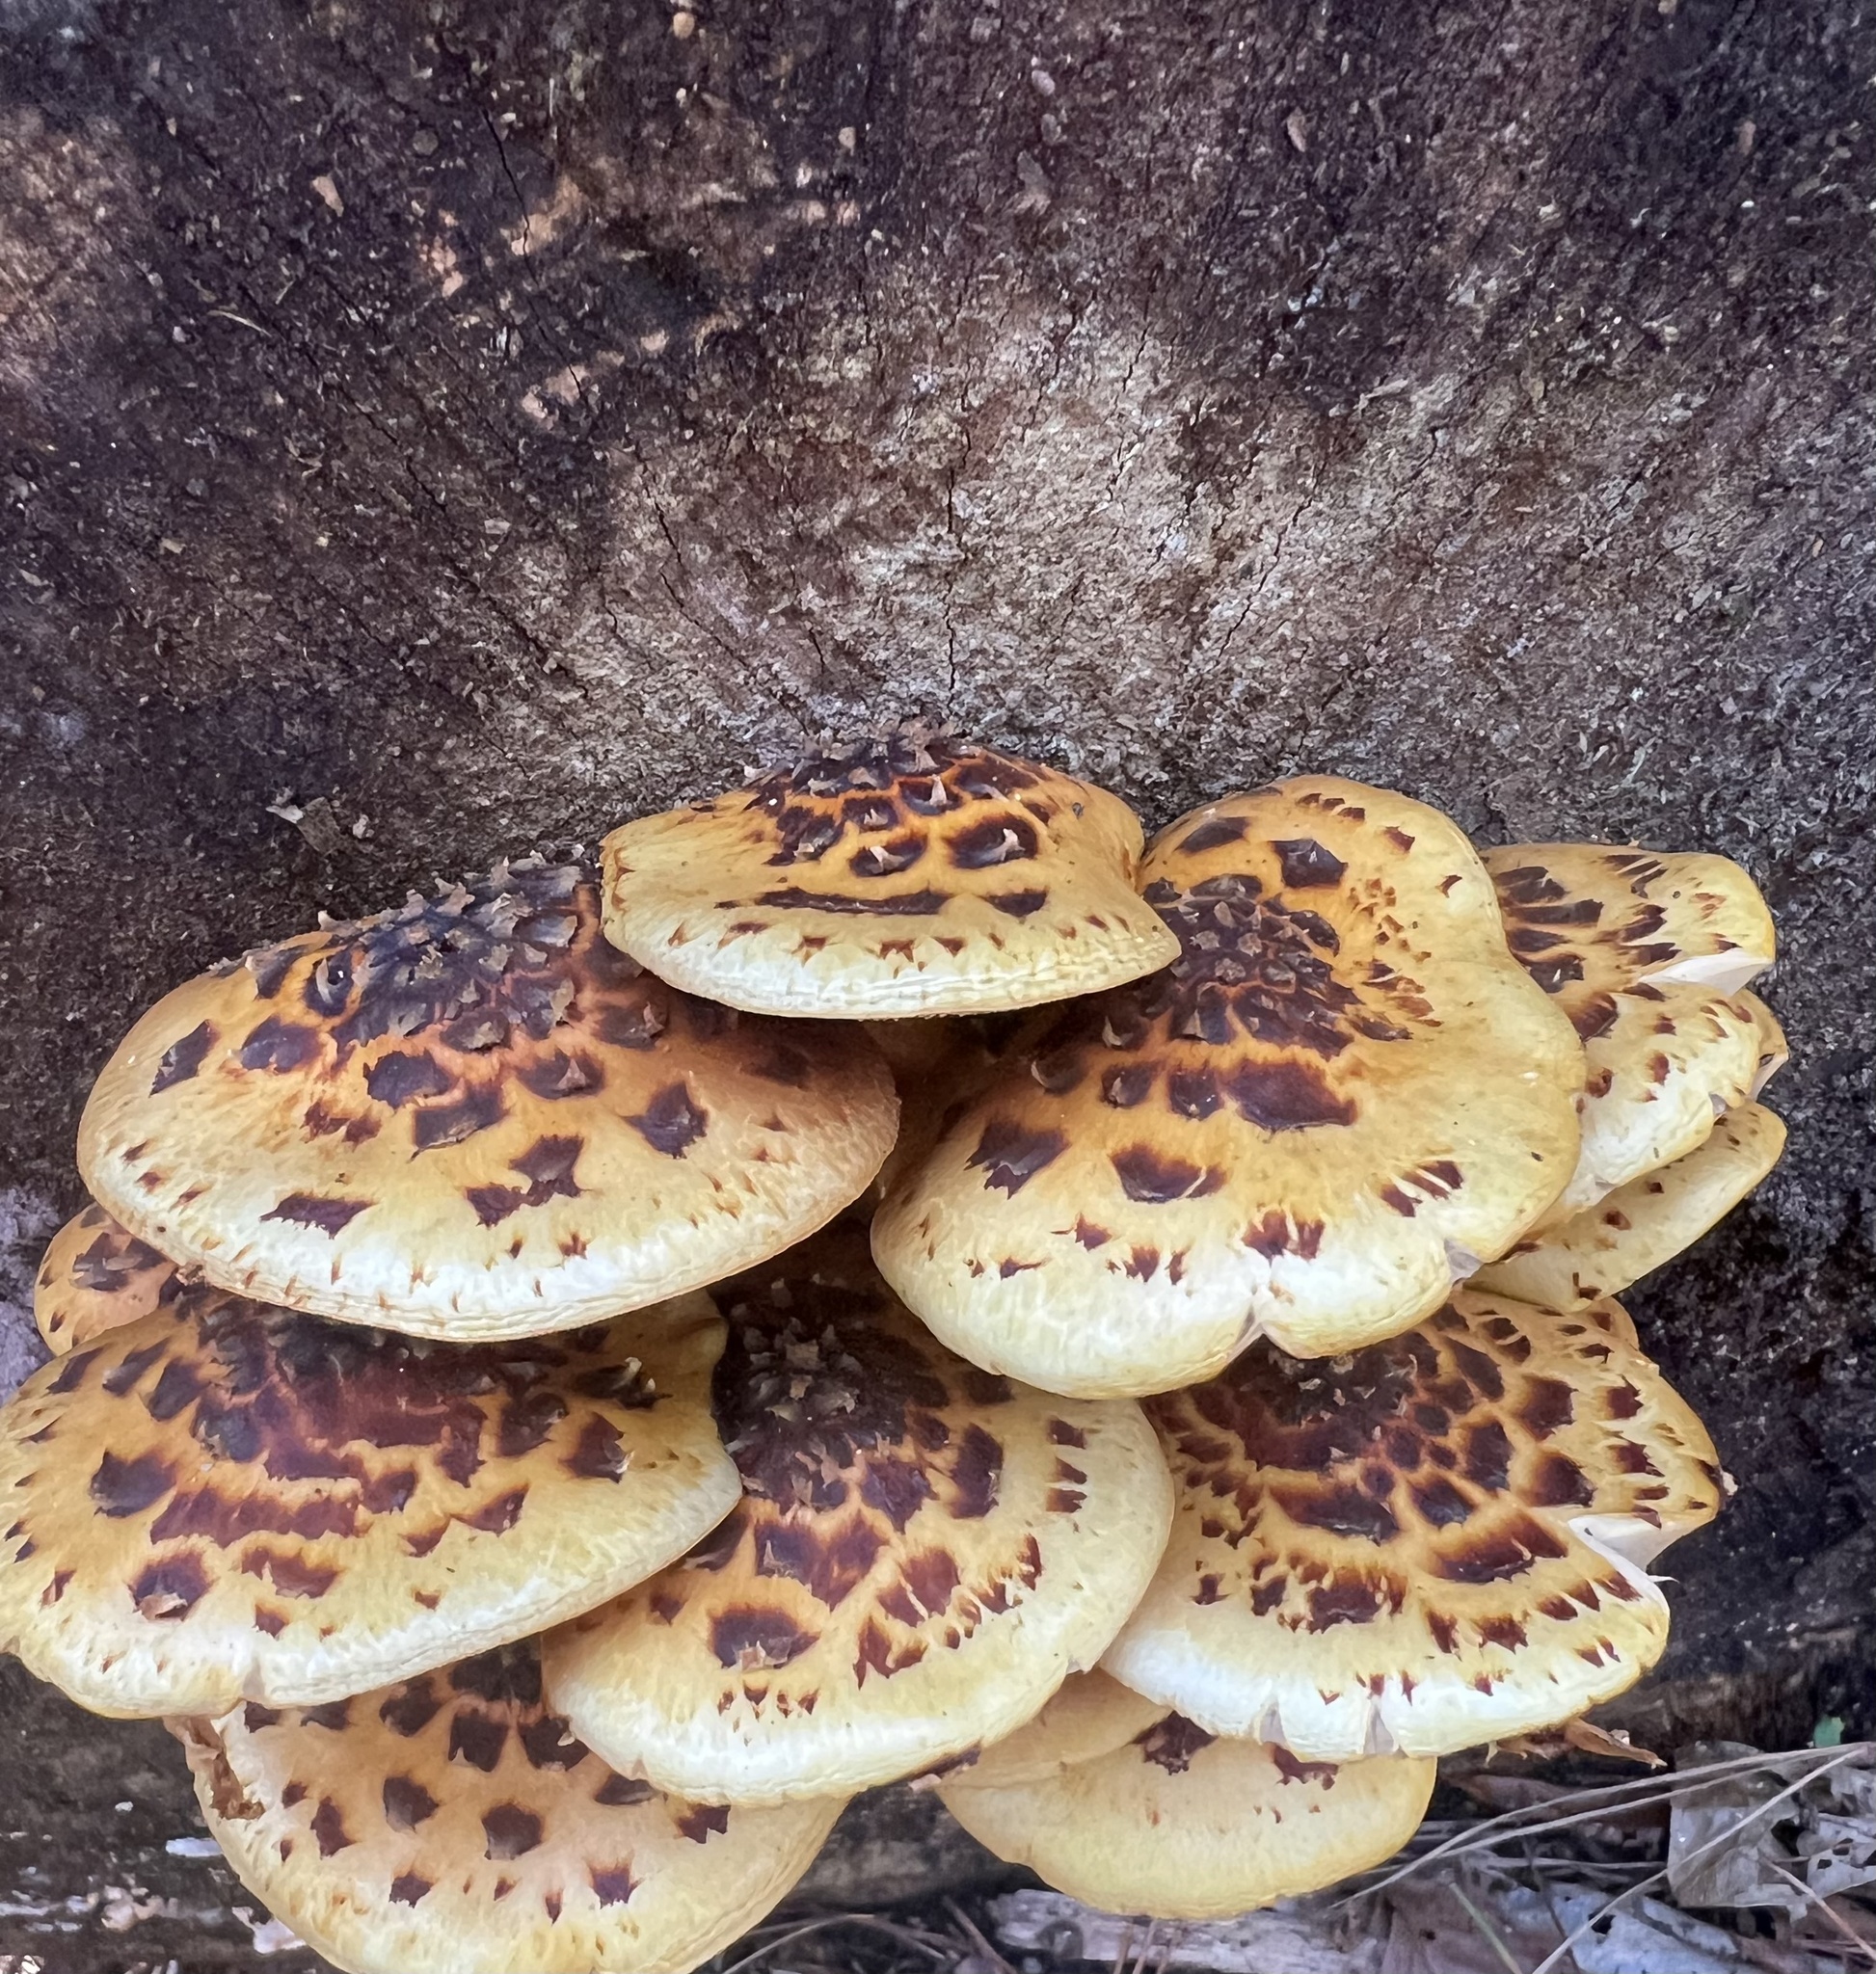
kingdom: Fungi
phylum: Basidiomycota
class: Agaricomycetes
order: Agaricales
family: Strophariaceae
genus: Pholiota
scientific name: Pholiota glutinosa
